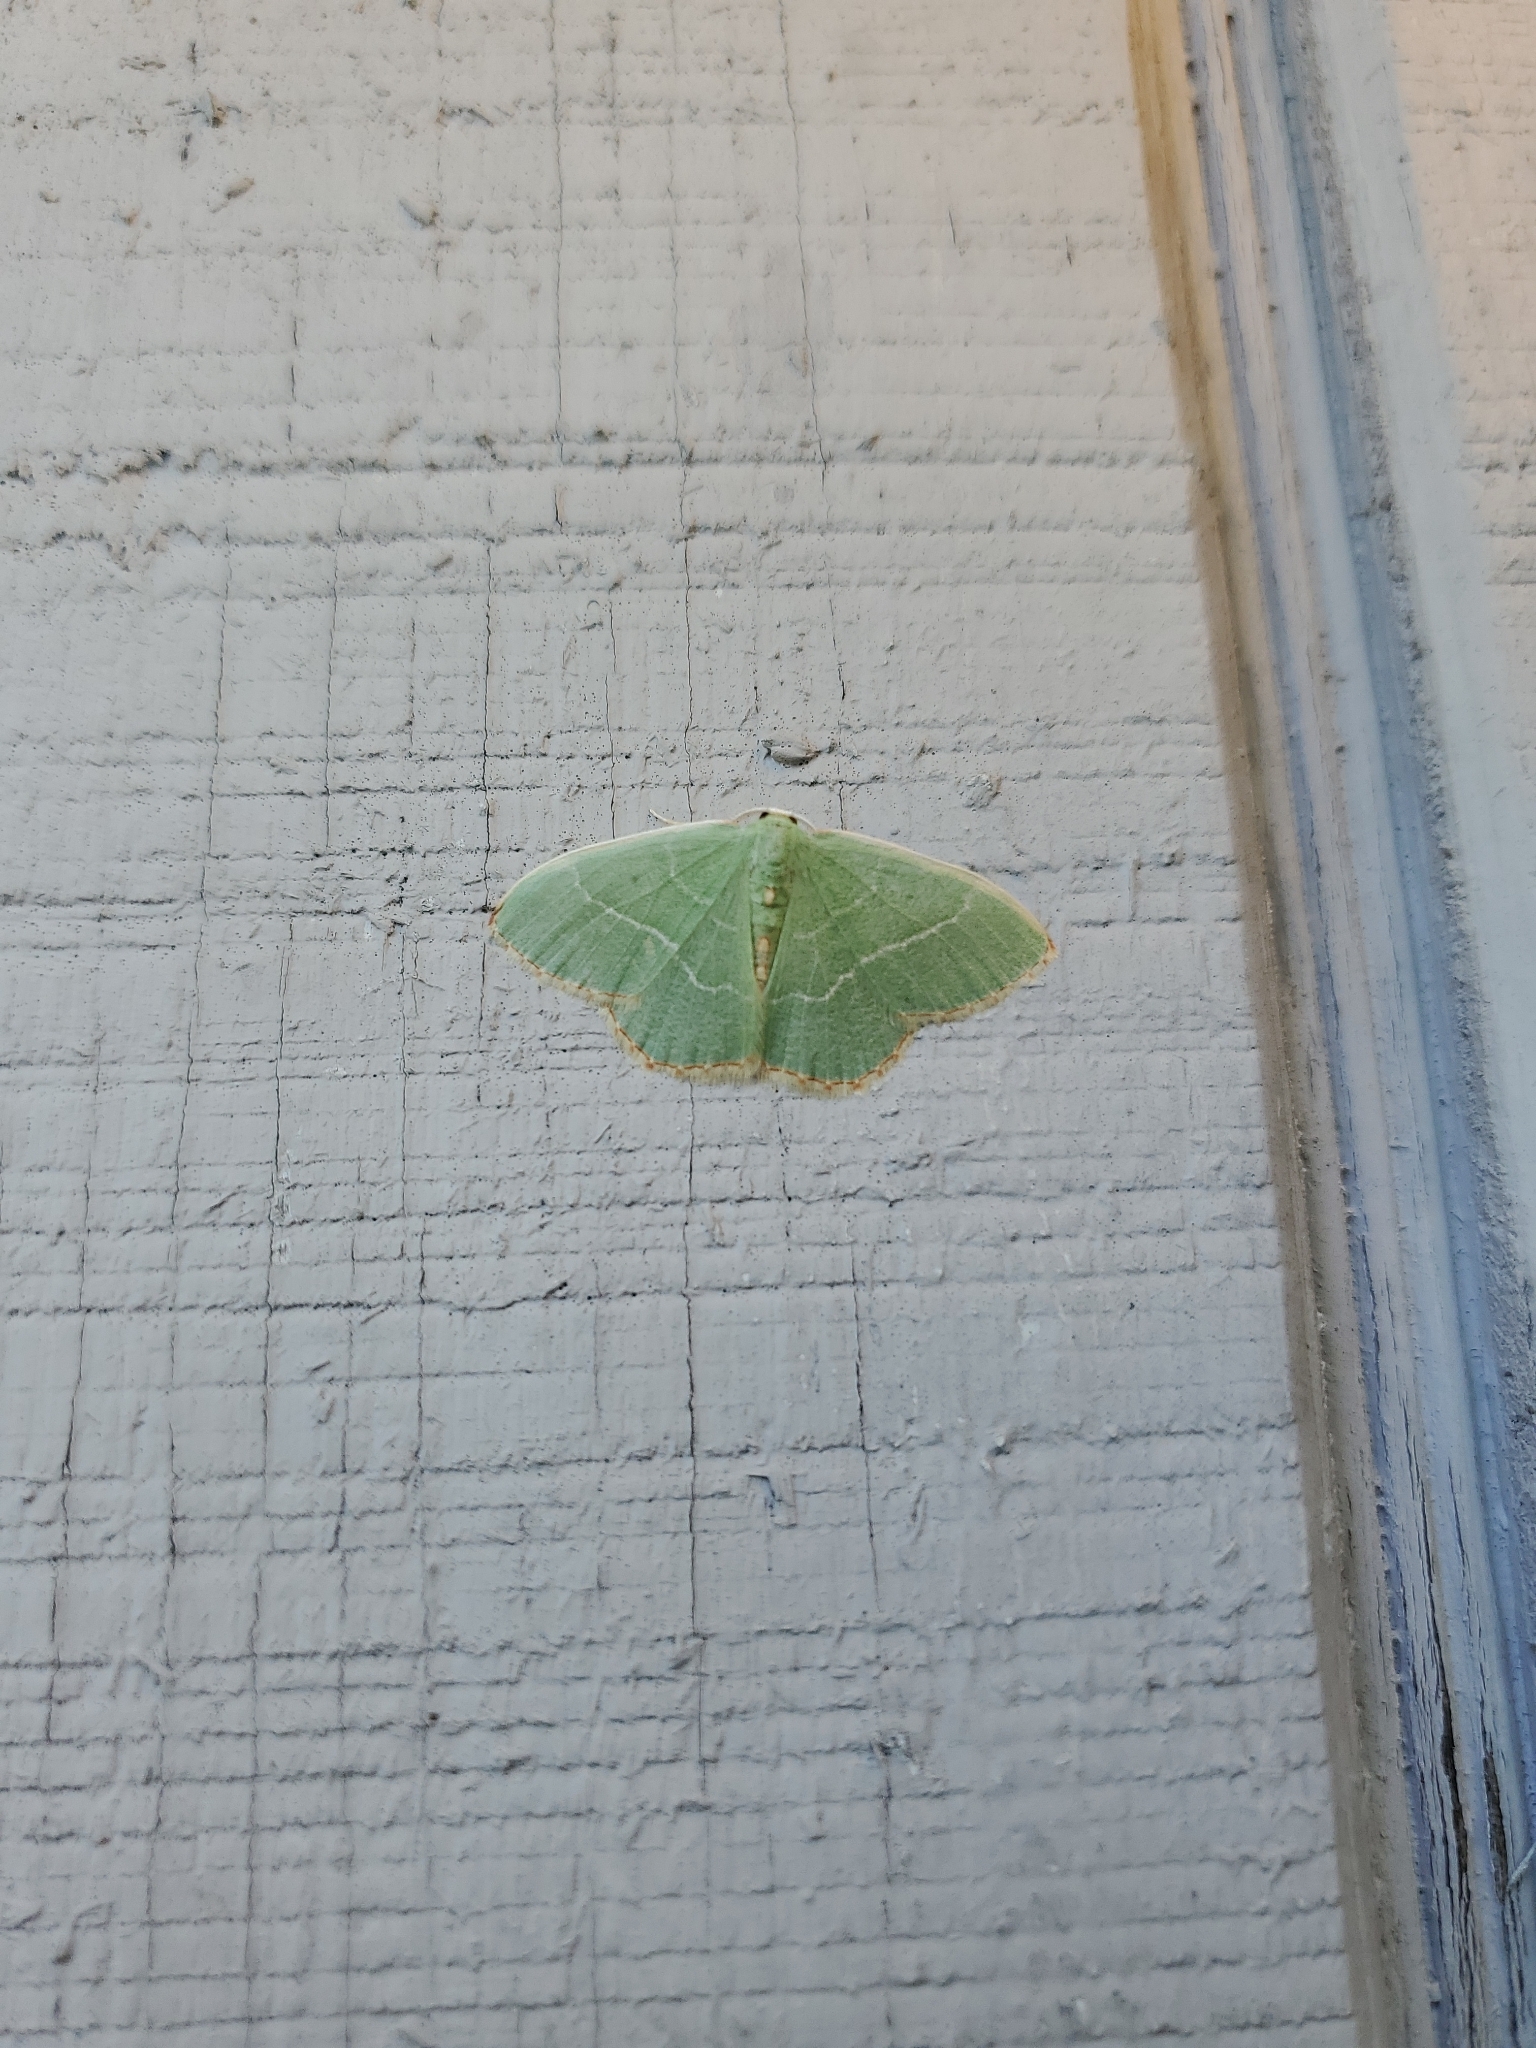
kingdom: Animalia
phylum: Arthropoda
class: Insecta
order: Lepidoptera
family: Geometridae
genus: Nemoria
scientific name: Nemoria lixaria
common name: Red-bordered emerald
